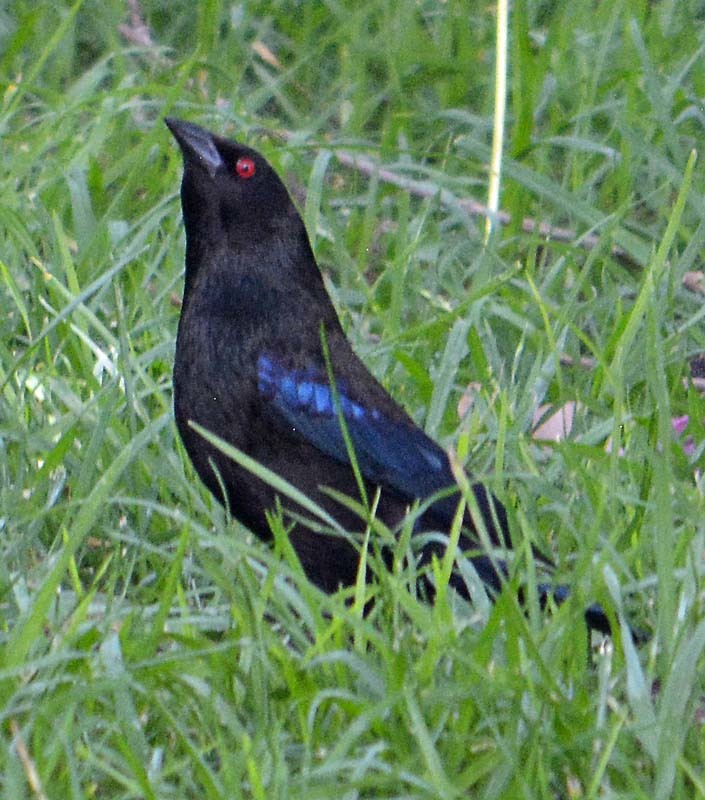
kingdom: Animalia
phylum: Chordata
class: Aves
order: Passeriformes
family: Icteridae
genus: Molothrus
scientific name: Molothrus aeneus
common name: Bronzed cowbird
